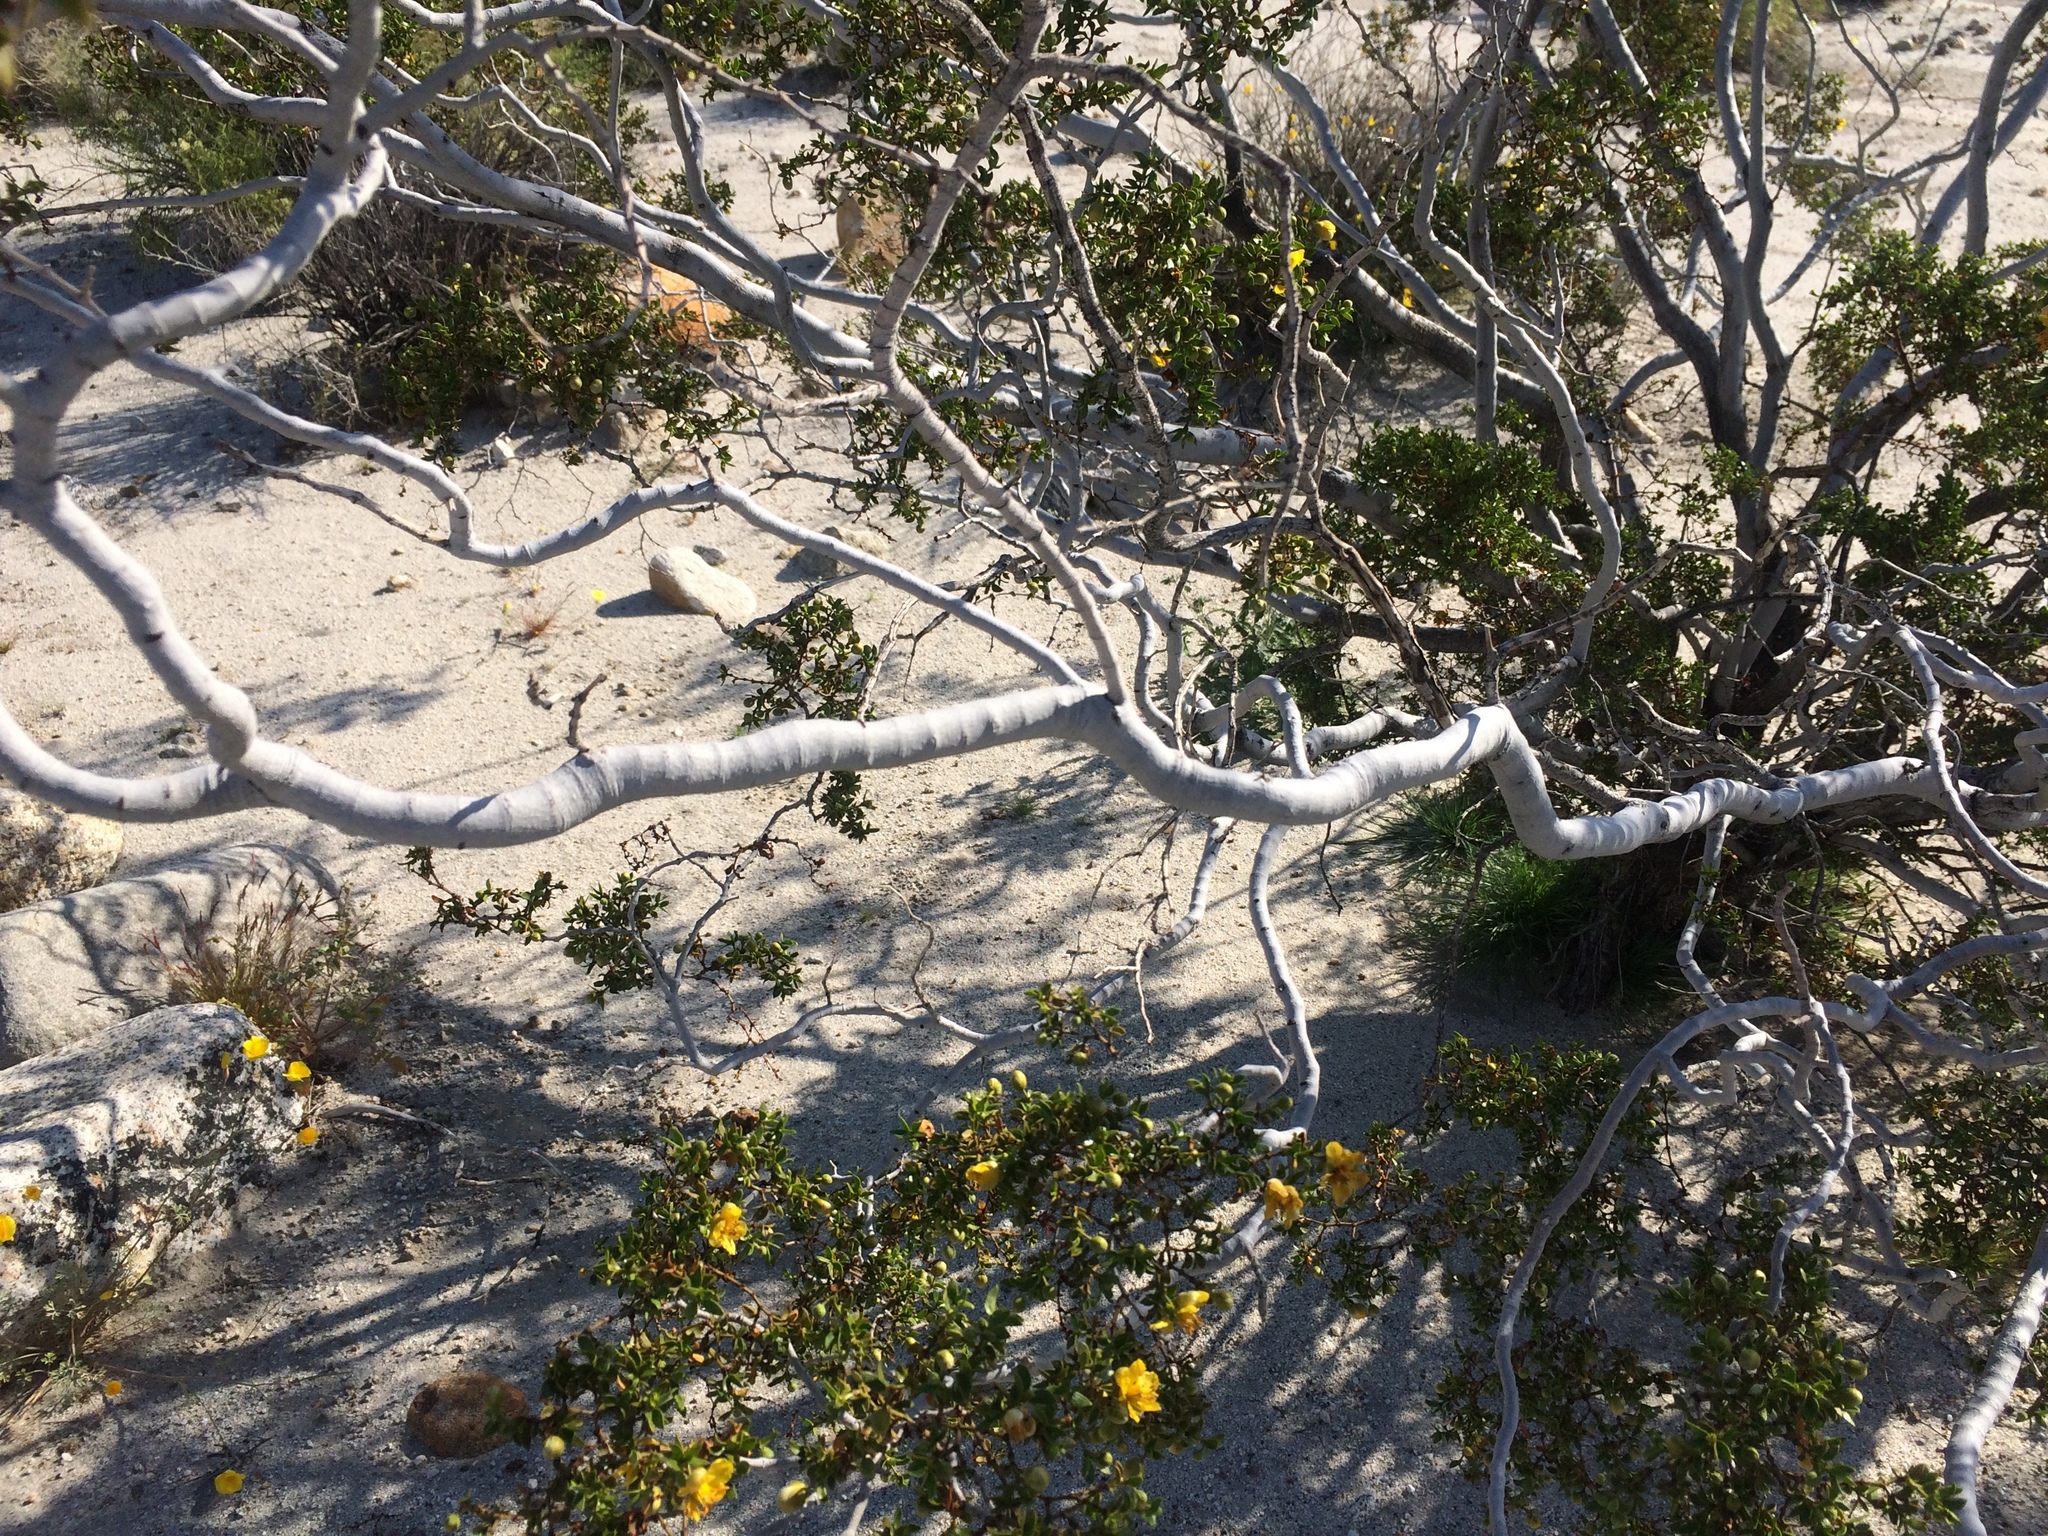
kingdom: Plantae
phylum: Tracheophyta
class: Magnoliopsida
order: Zygophyllales
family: Zygophyllaceae
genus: Larrea
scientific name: Larrea tridentata
